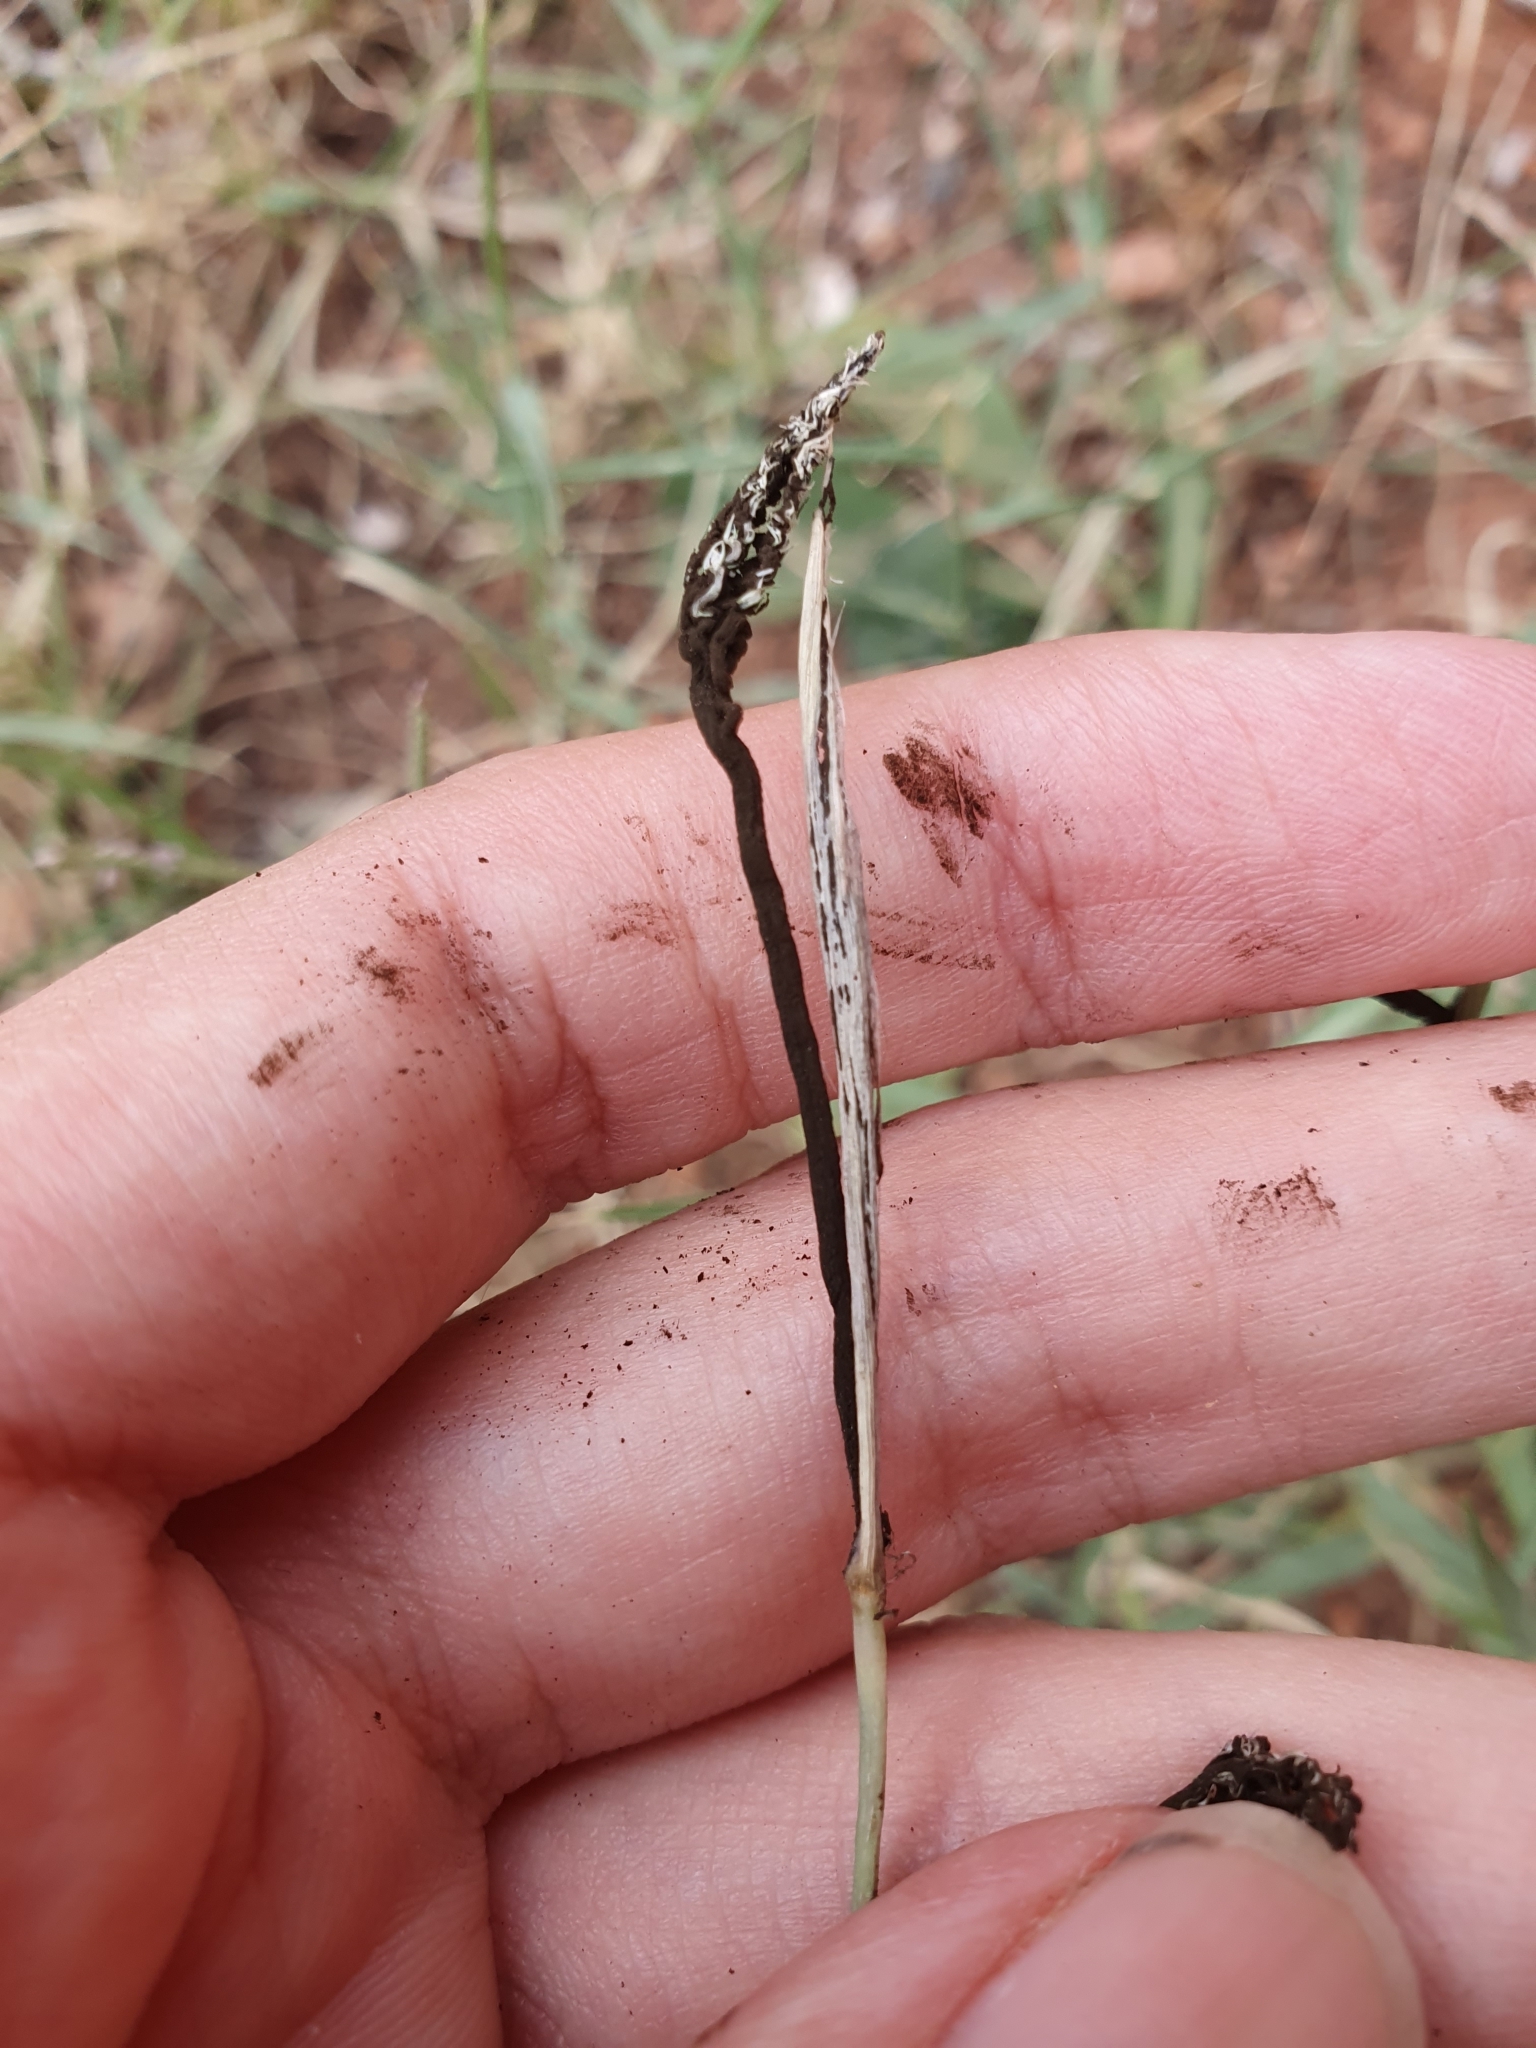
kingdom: Plantae
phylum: Tracheophyta
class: Liliopsida
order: Poales
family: Poaceae
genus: Cynodon
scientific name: Cynodon dactylon
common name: Bermuda grass
